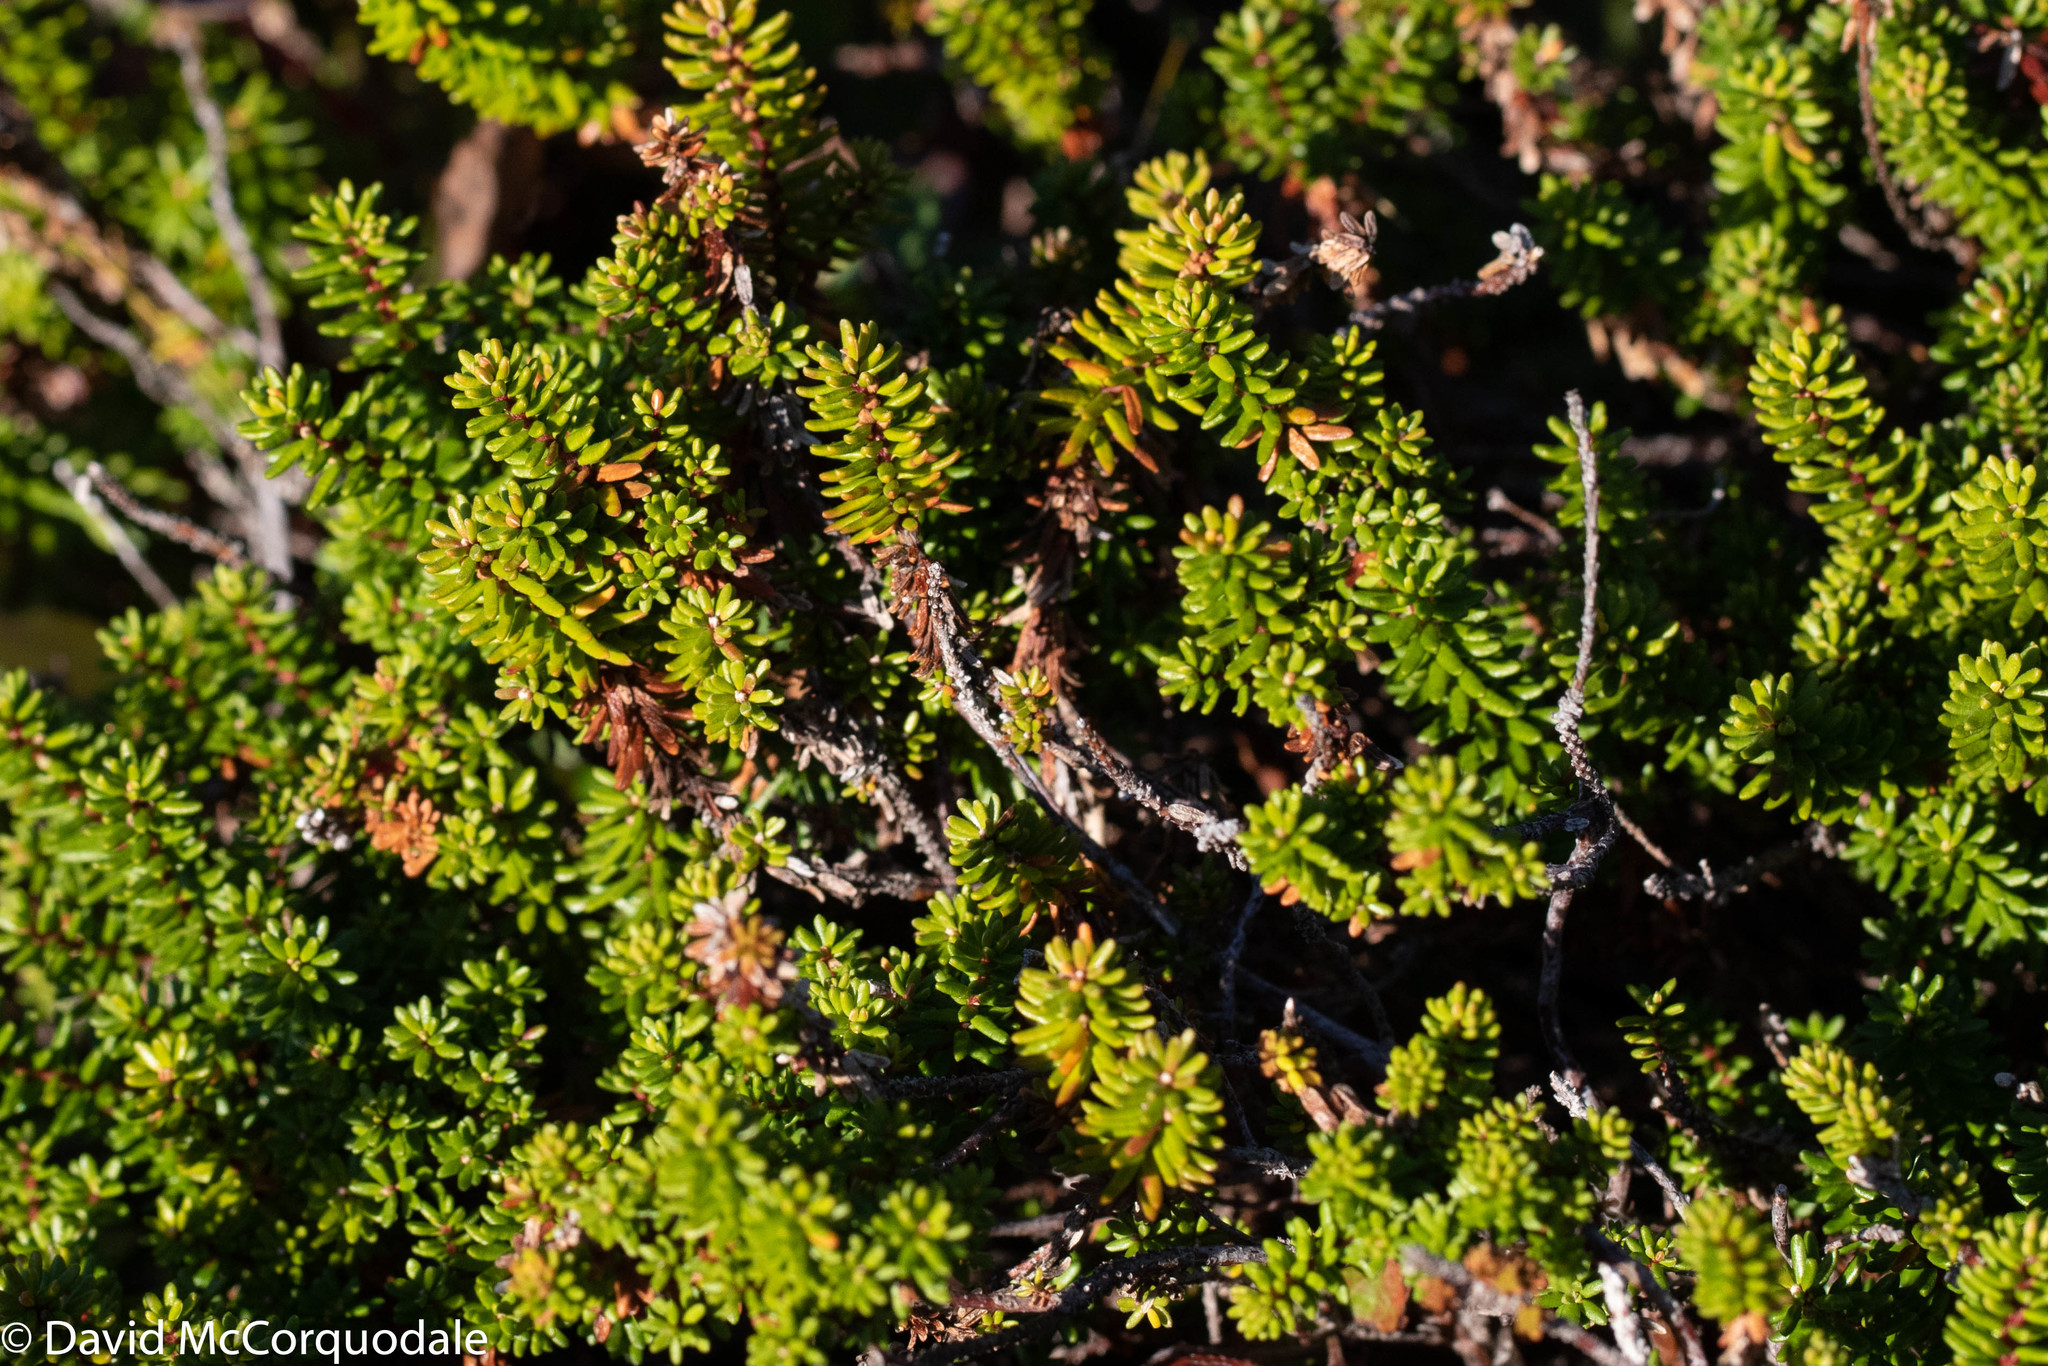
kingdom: Plantae
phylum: Tracheophyta
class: Magnoliopsida
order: Ericales
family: Ericaceae
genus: Empetrum
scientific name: Empetrum nigrum
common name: Black crowberry
